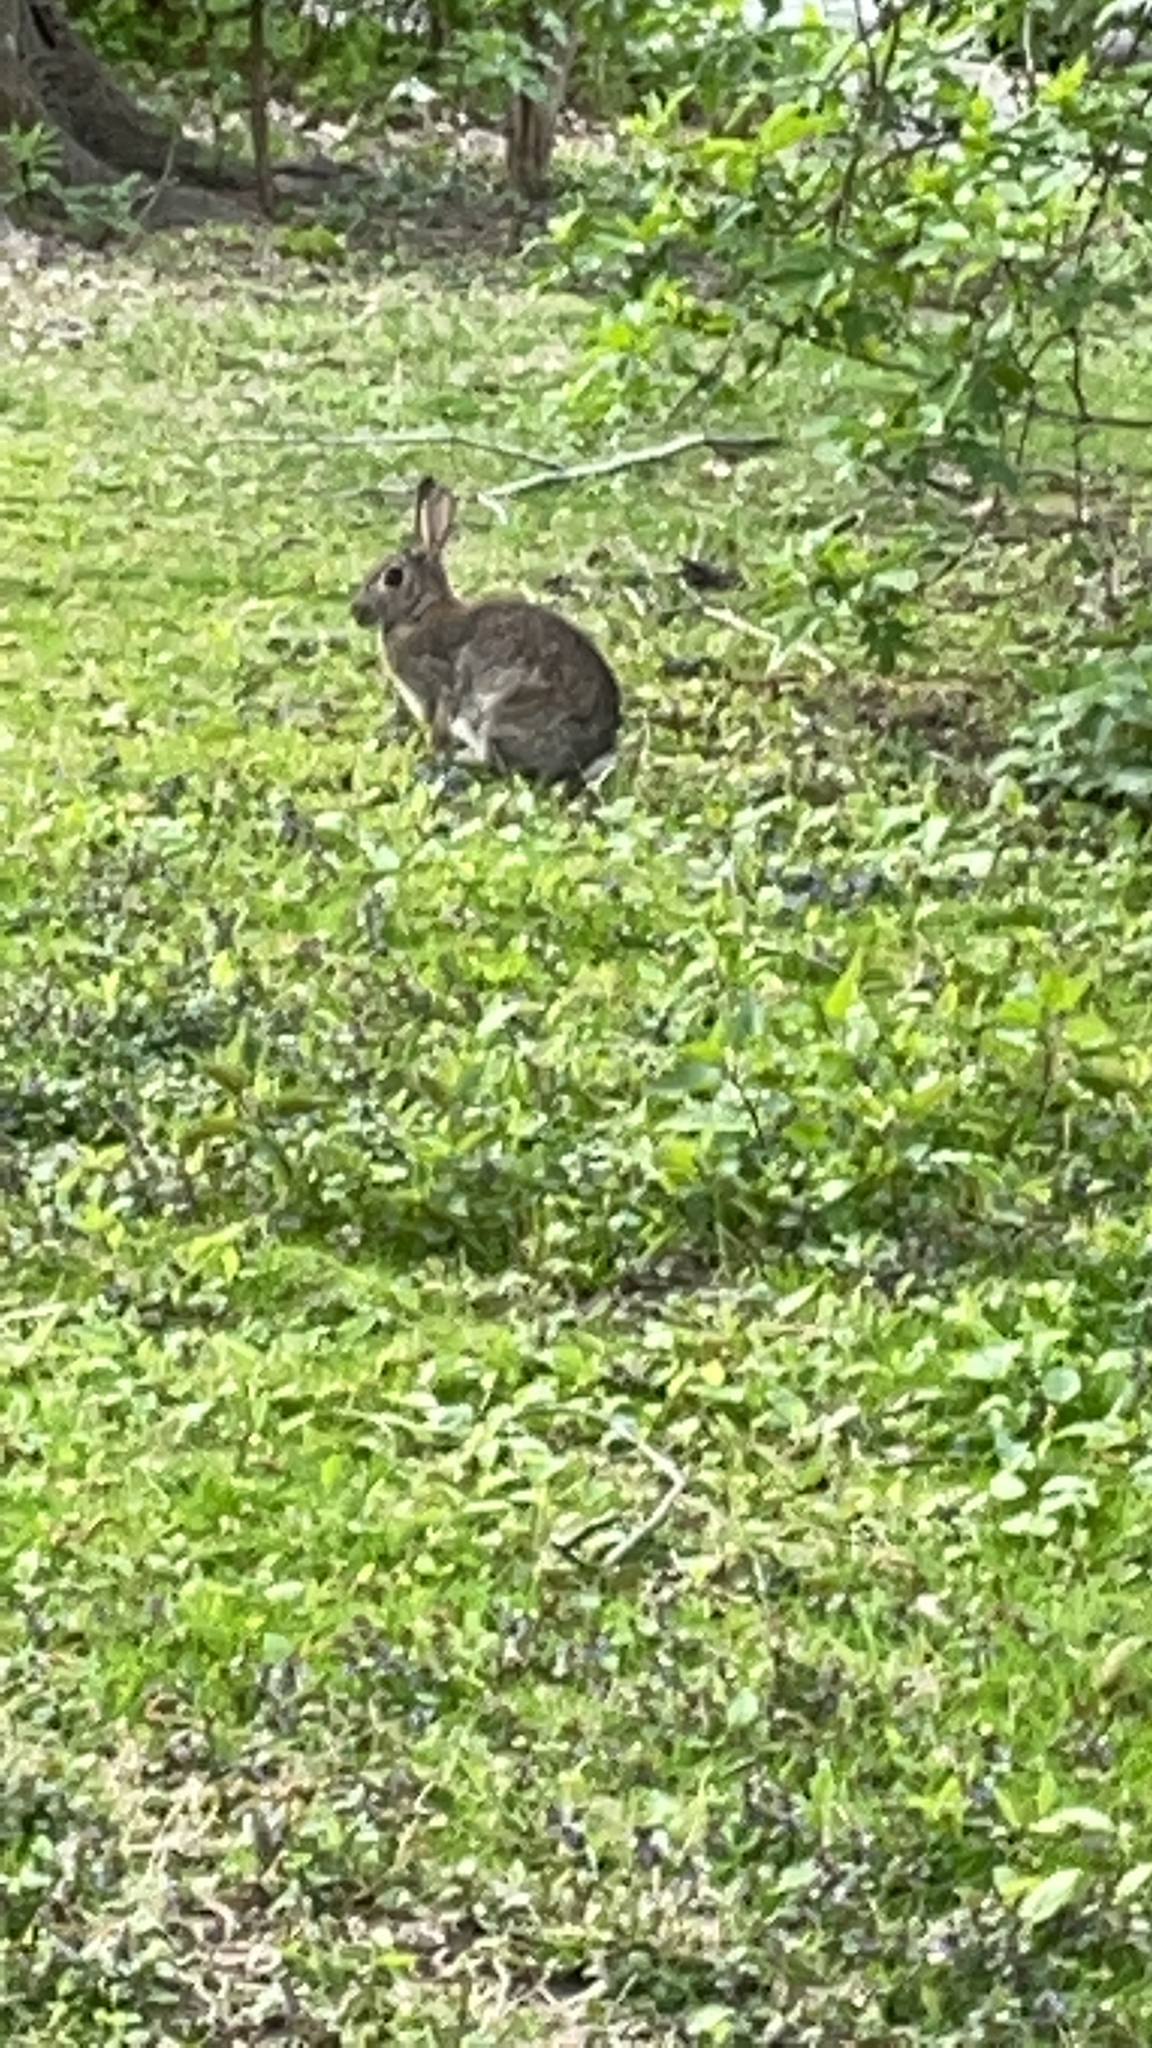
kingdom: Animalia
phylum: Chordata
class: Mammalia
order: Lagomorpha
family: Leporidae
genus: Oryctolagus
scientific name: Oryctolagus cuniculus
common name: European rabbit
